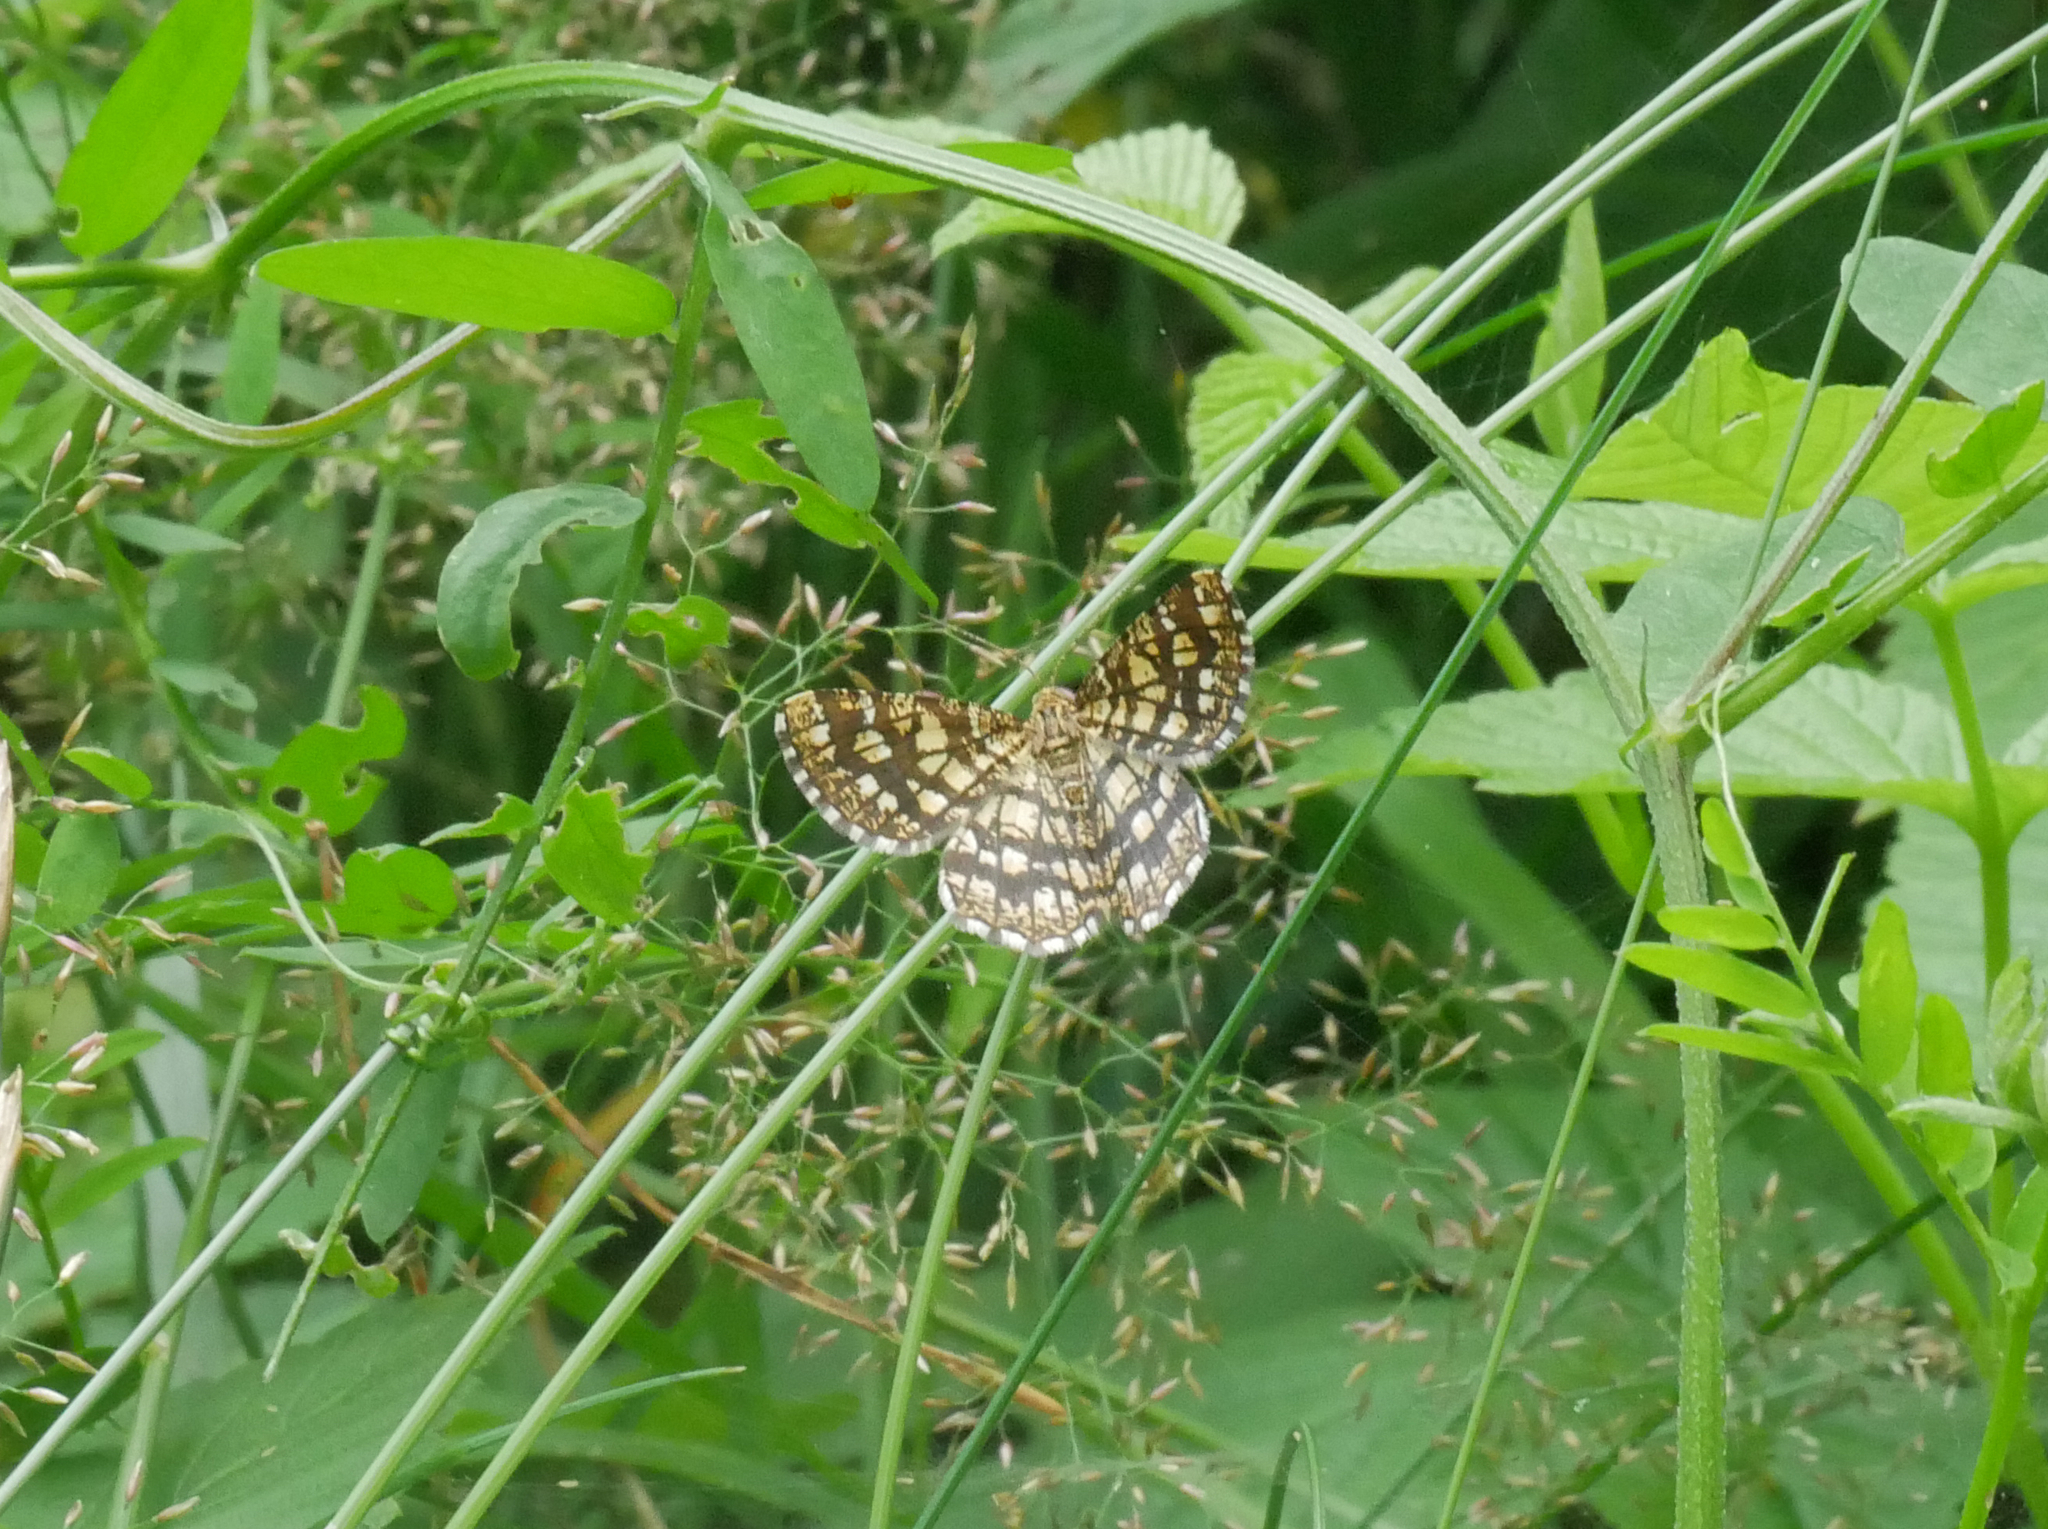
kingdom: Animalia
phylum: Arthropoda
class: Insecta
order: Lepidoptera
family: Geometridae
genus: Chiasmia
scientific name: Chiasmia clathrata
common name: Latticed heath
